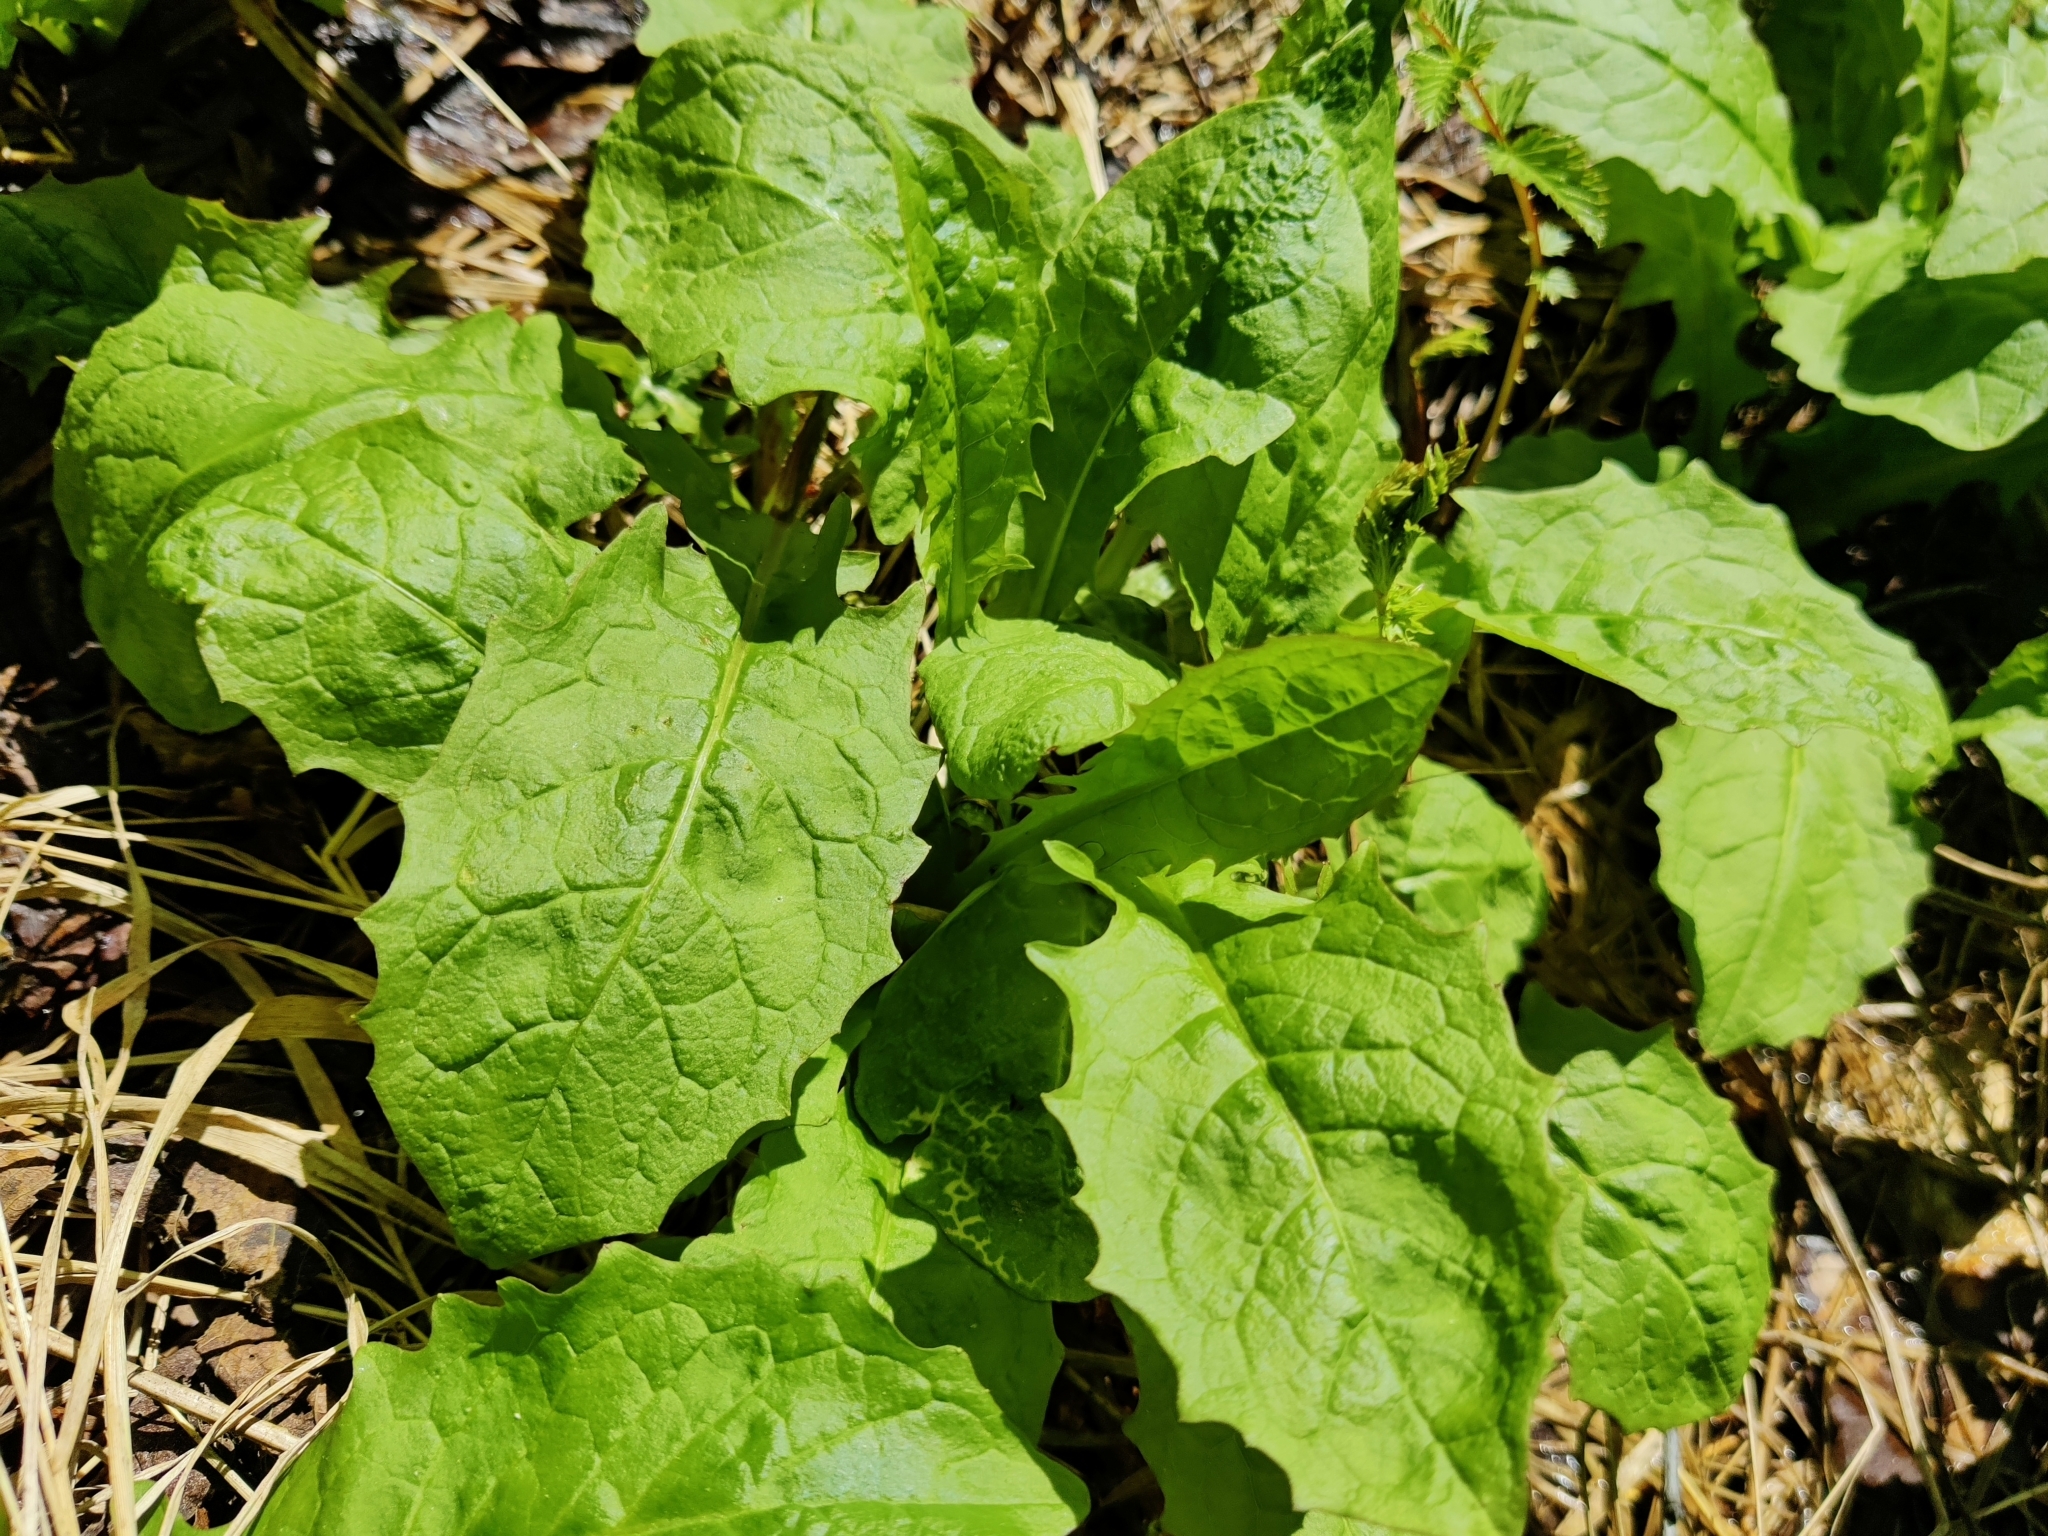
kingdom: Plantae
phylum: Tracheophyta
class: Magnoliopsida
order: Asterales
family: Asteraceae
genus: Crepis
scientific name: Crepis paludosa
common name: Marsh hawk's-beard
